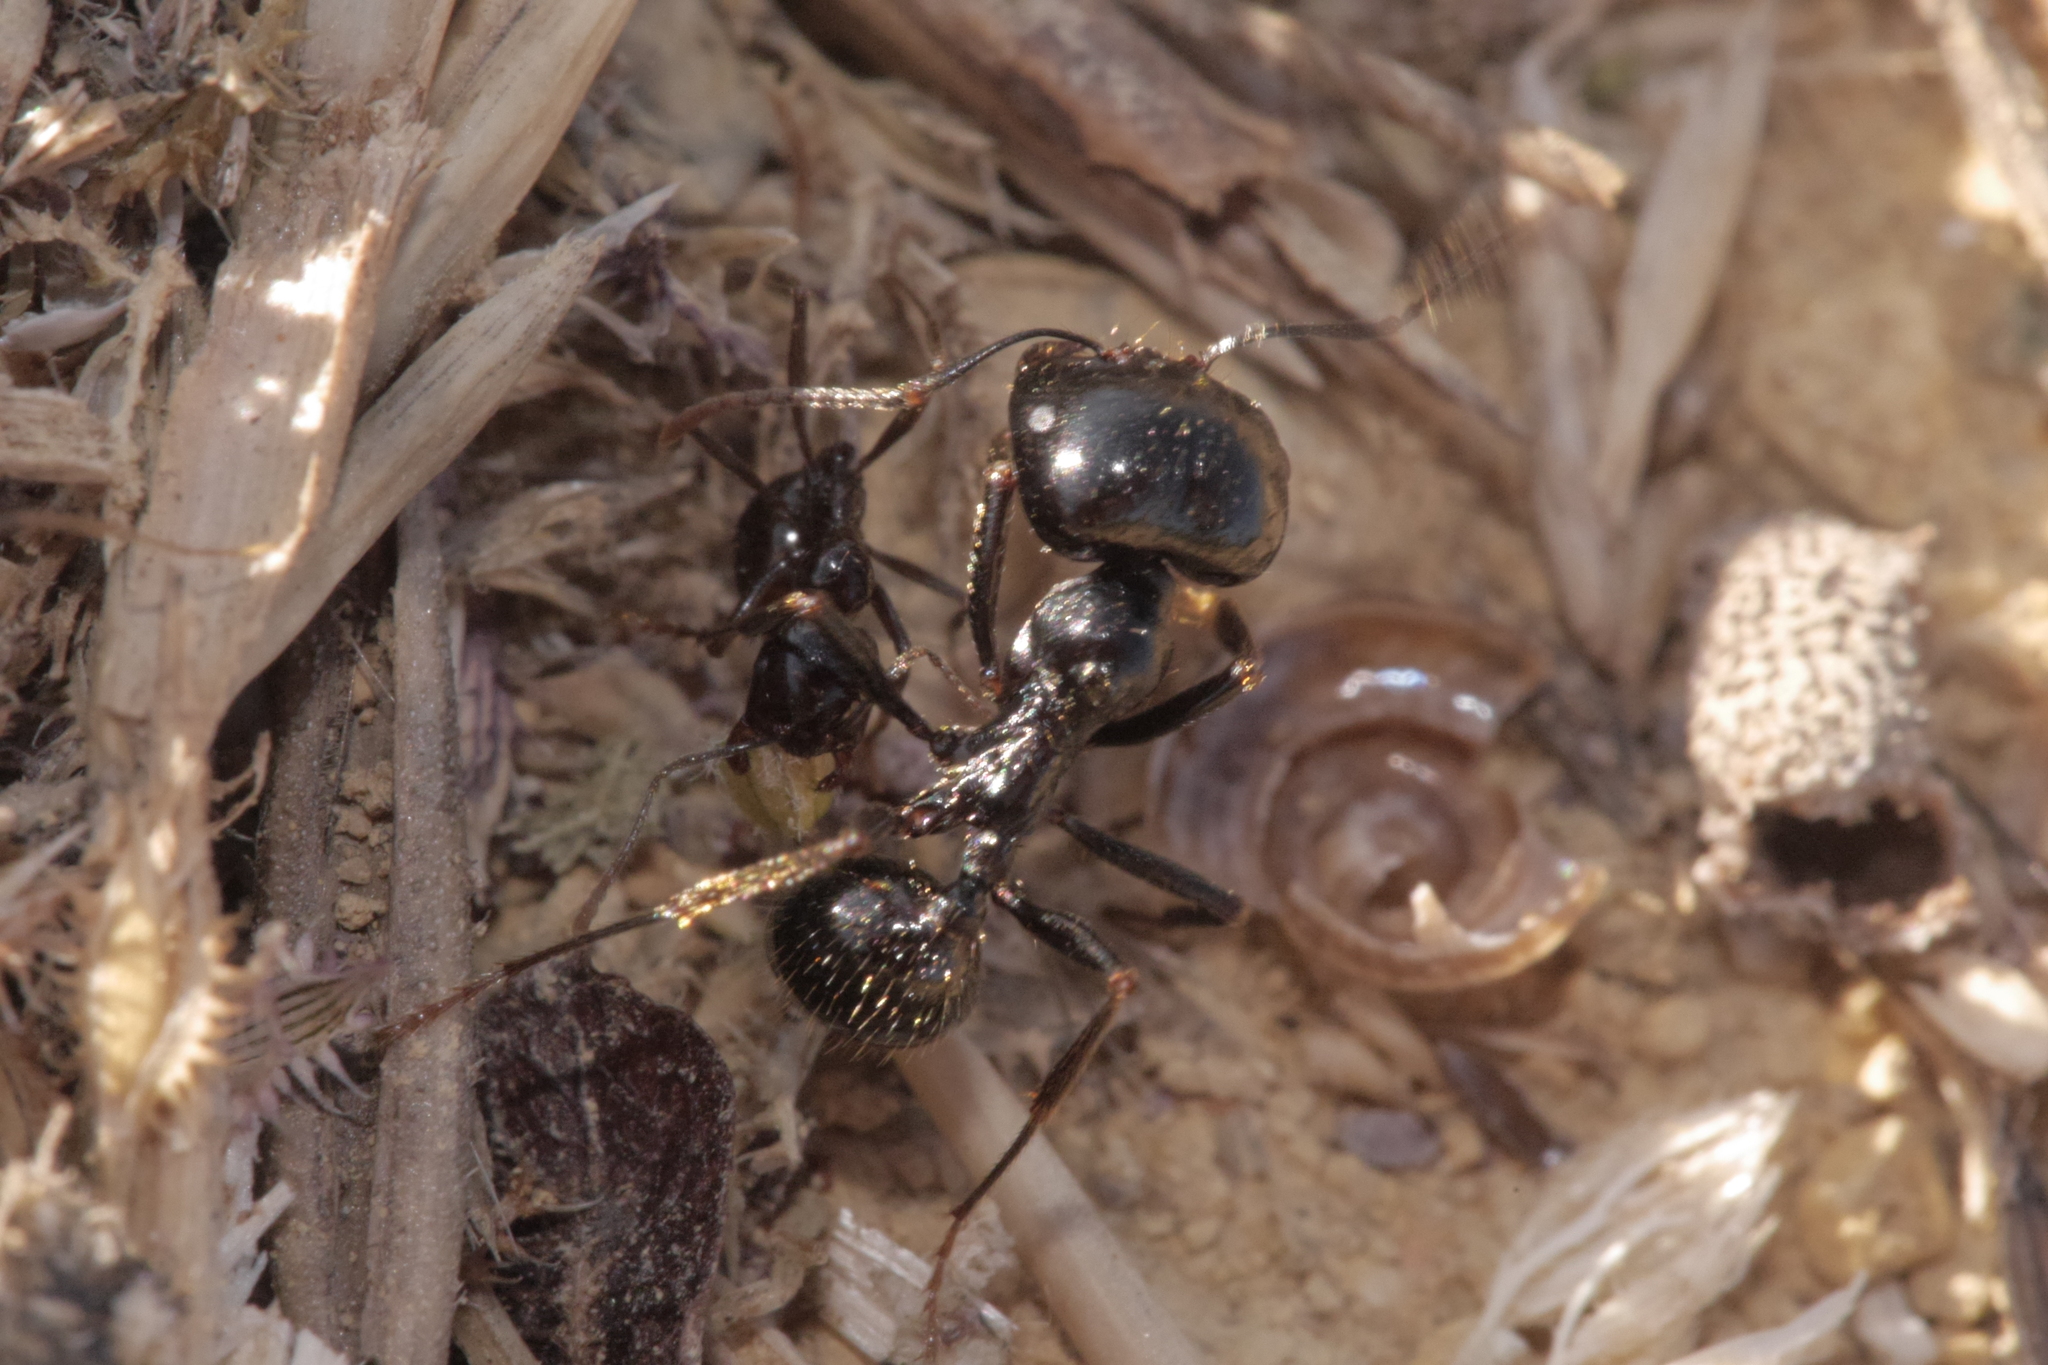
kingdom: Animalia
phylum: Arthropoda
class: Insecta
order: Hymenoptera
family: Formicidae
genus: Messor
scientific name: Messor capitatus
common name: European seed harvesting ant
